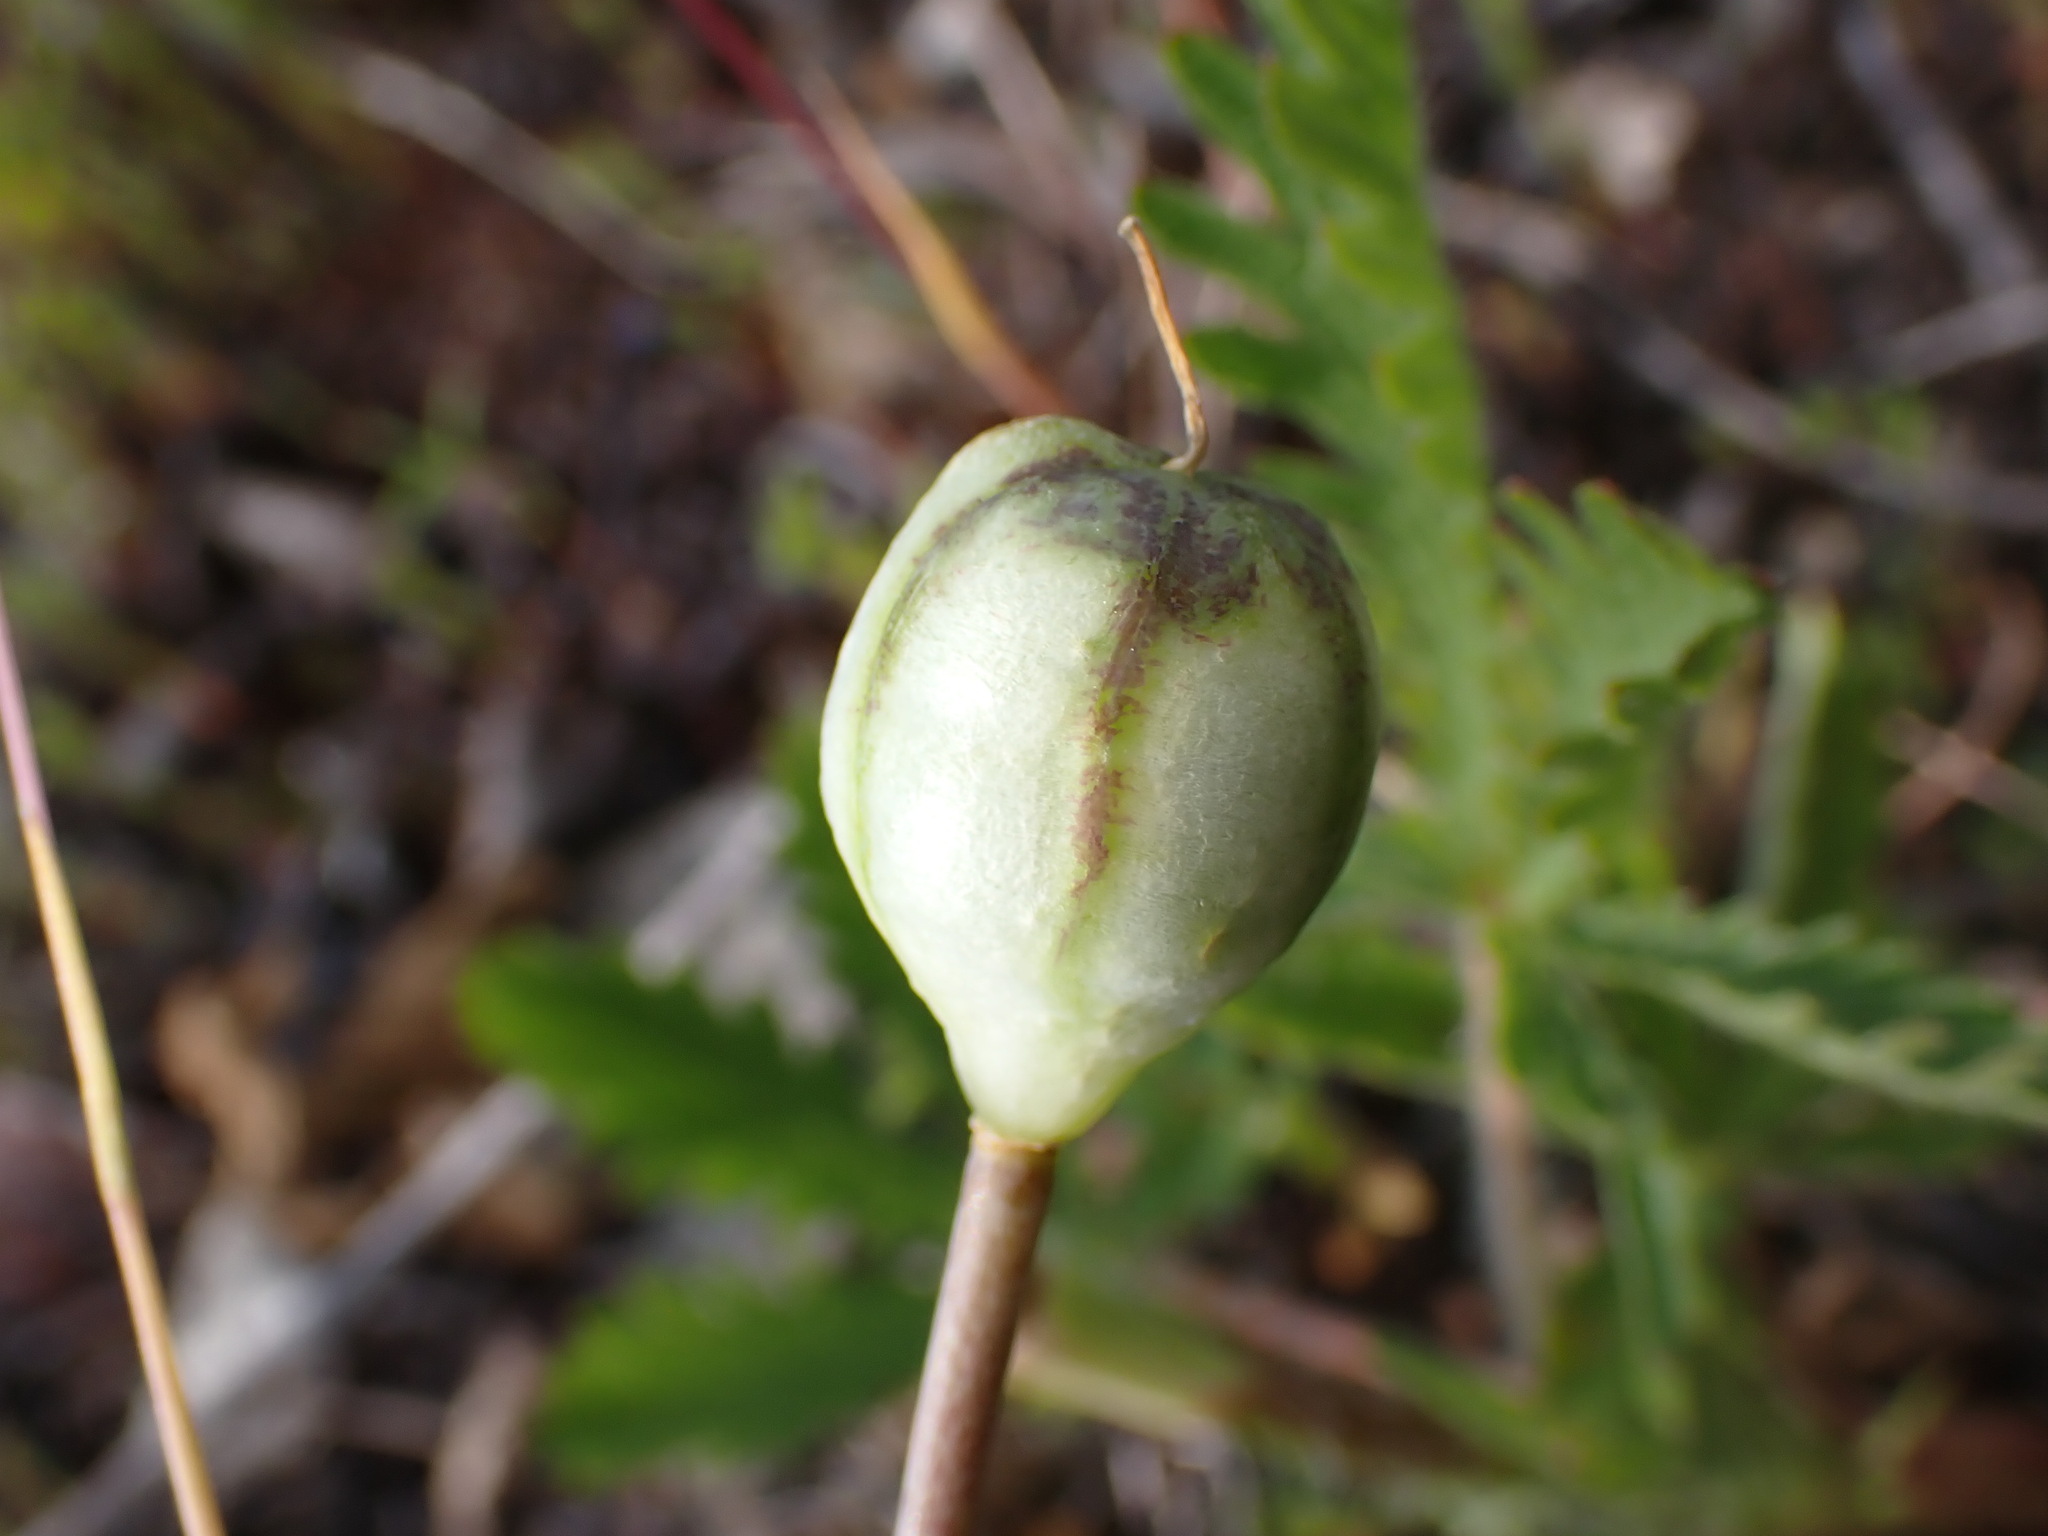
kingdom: Plantae
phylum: Tracheophyta
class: Liliopsida
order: Liliales
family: Liliaceae
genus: Fritillaria
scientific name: Fritillaria pudica
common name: Yellow fritillary
